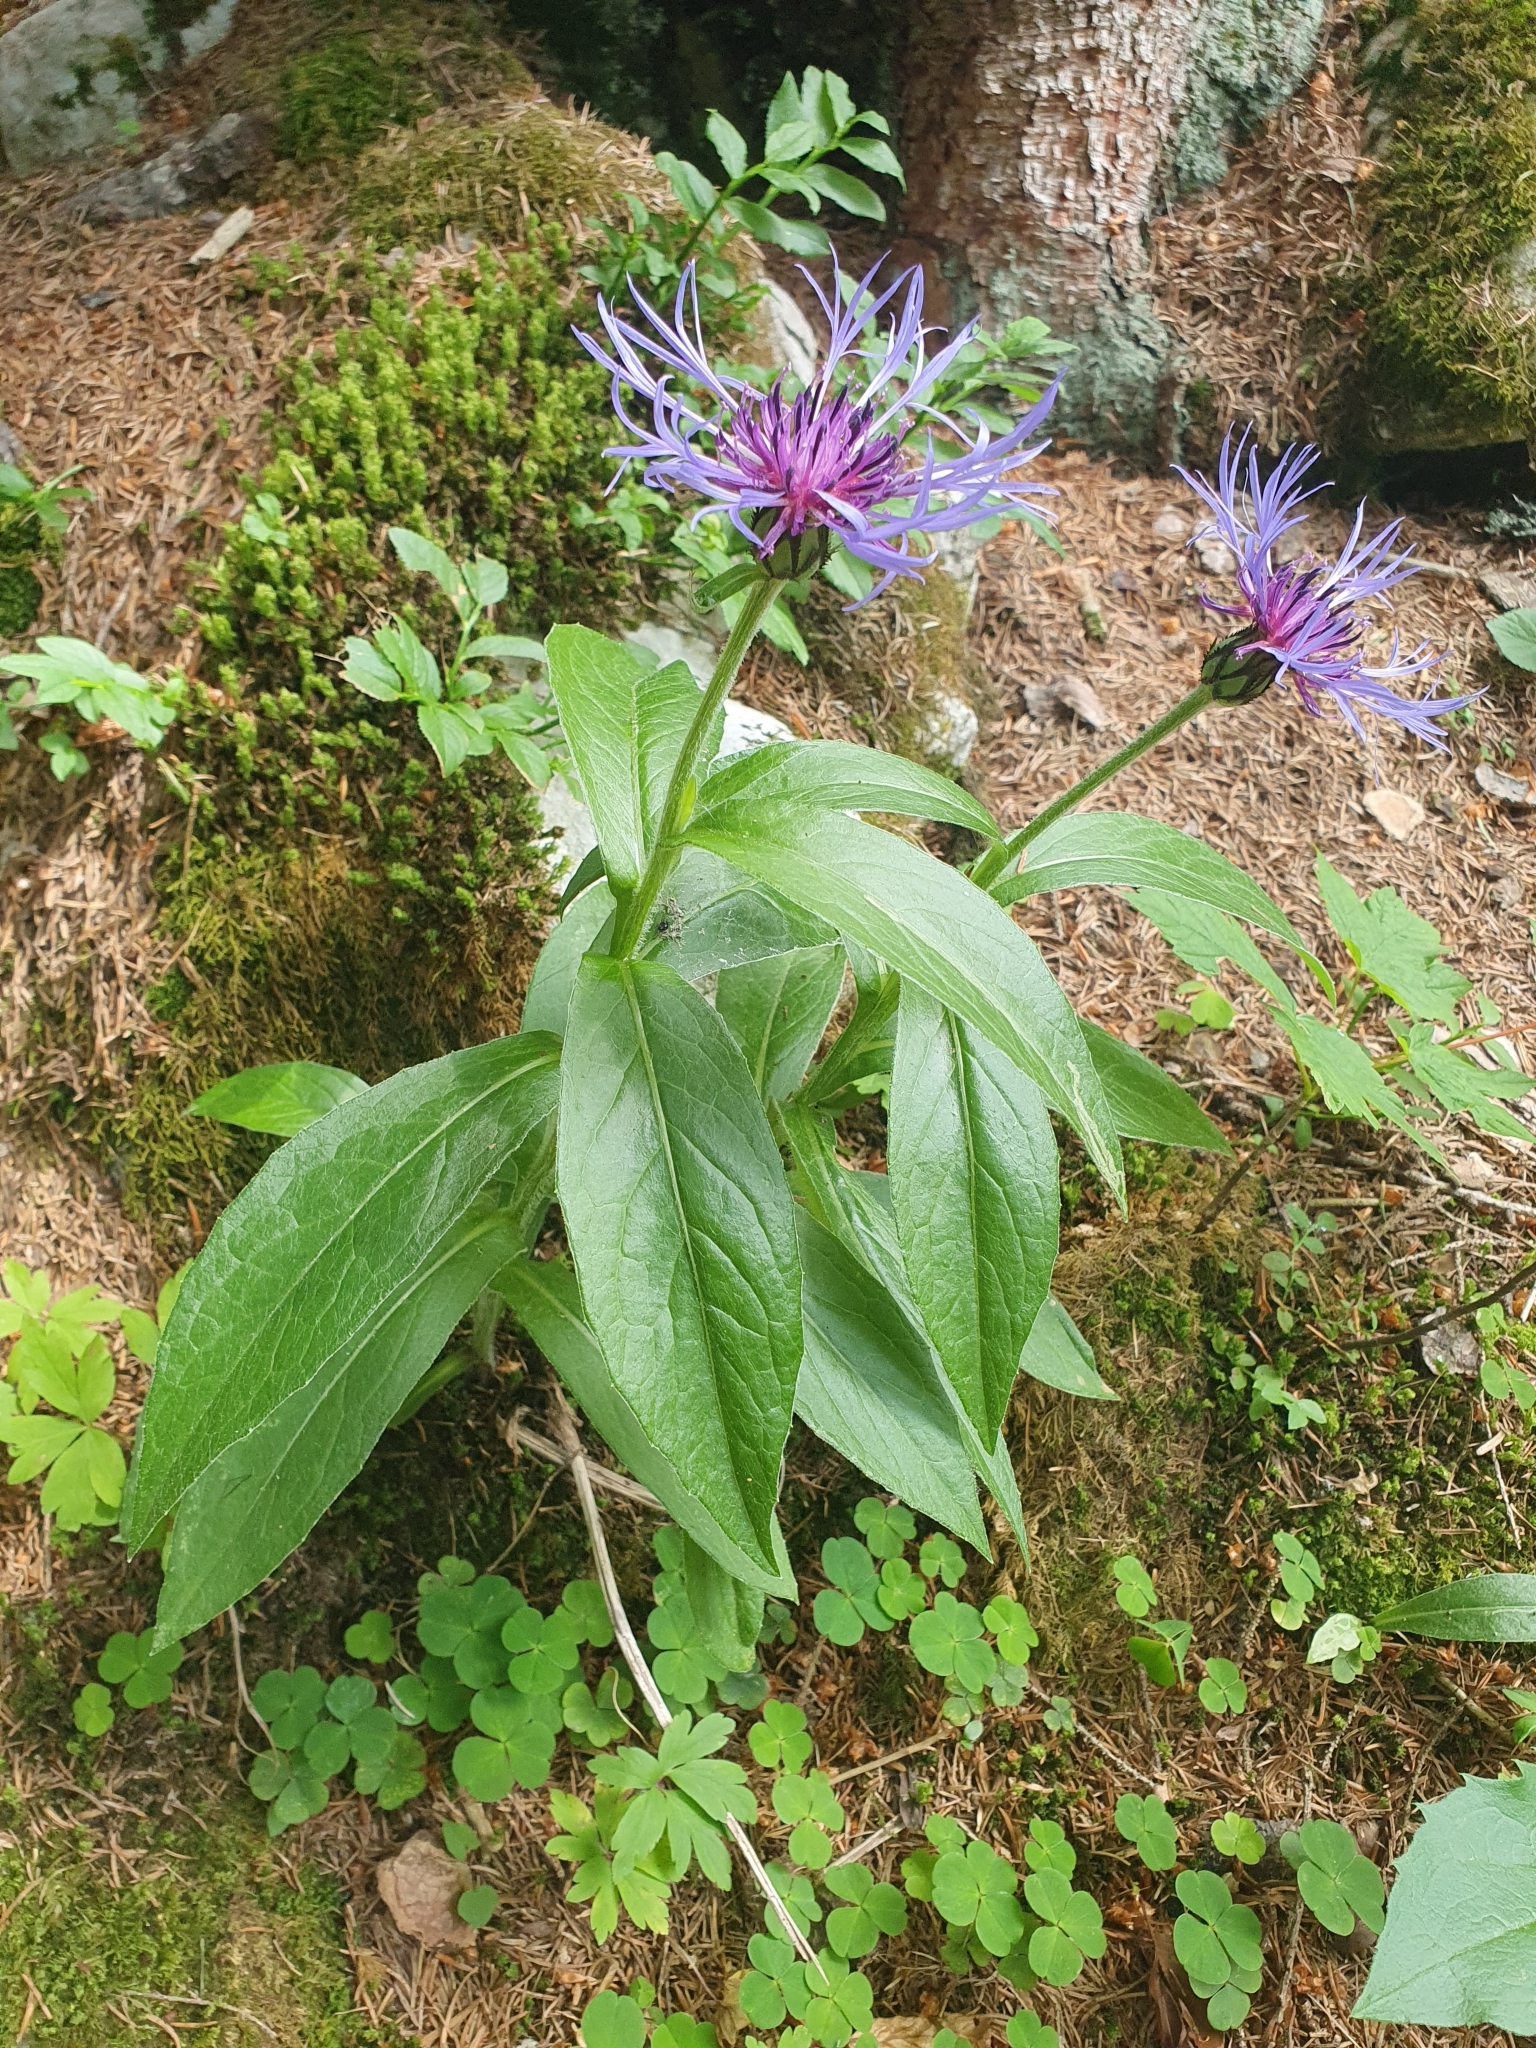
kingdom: Plantae
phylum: Tracheophyta
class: Magnoliopsida
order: Asterales
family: Asteraceae
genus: Centaurea
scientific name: Centaurea montana
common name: Perennial cornflower
